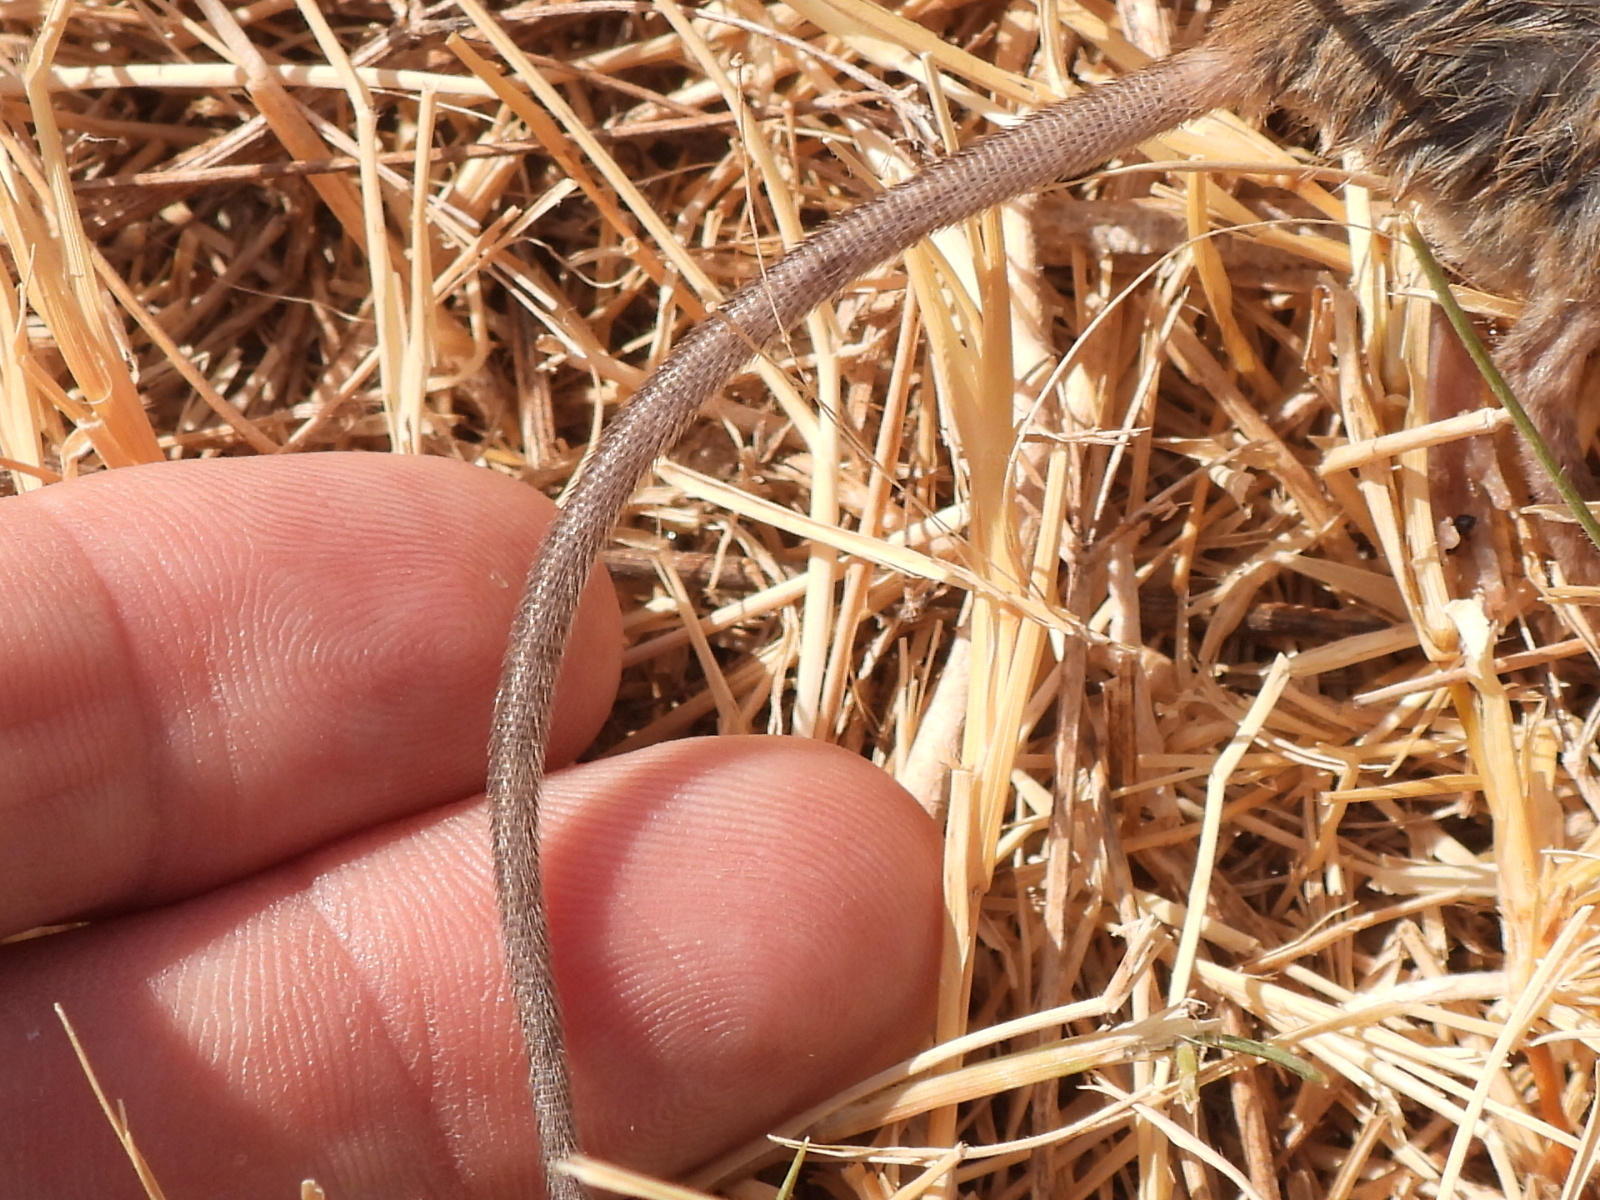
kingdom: Animalia
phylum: Chordata
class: Mammalia
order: Rodentia
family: Muridae
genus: Mus
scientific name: Mus musculus
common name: House mouse
